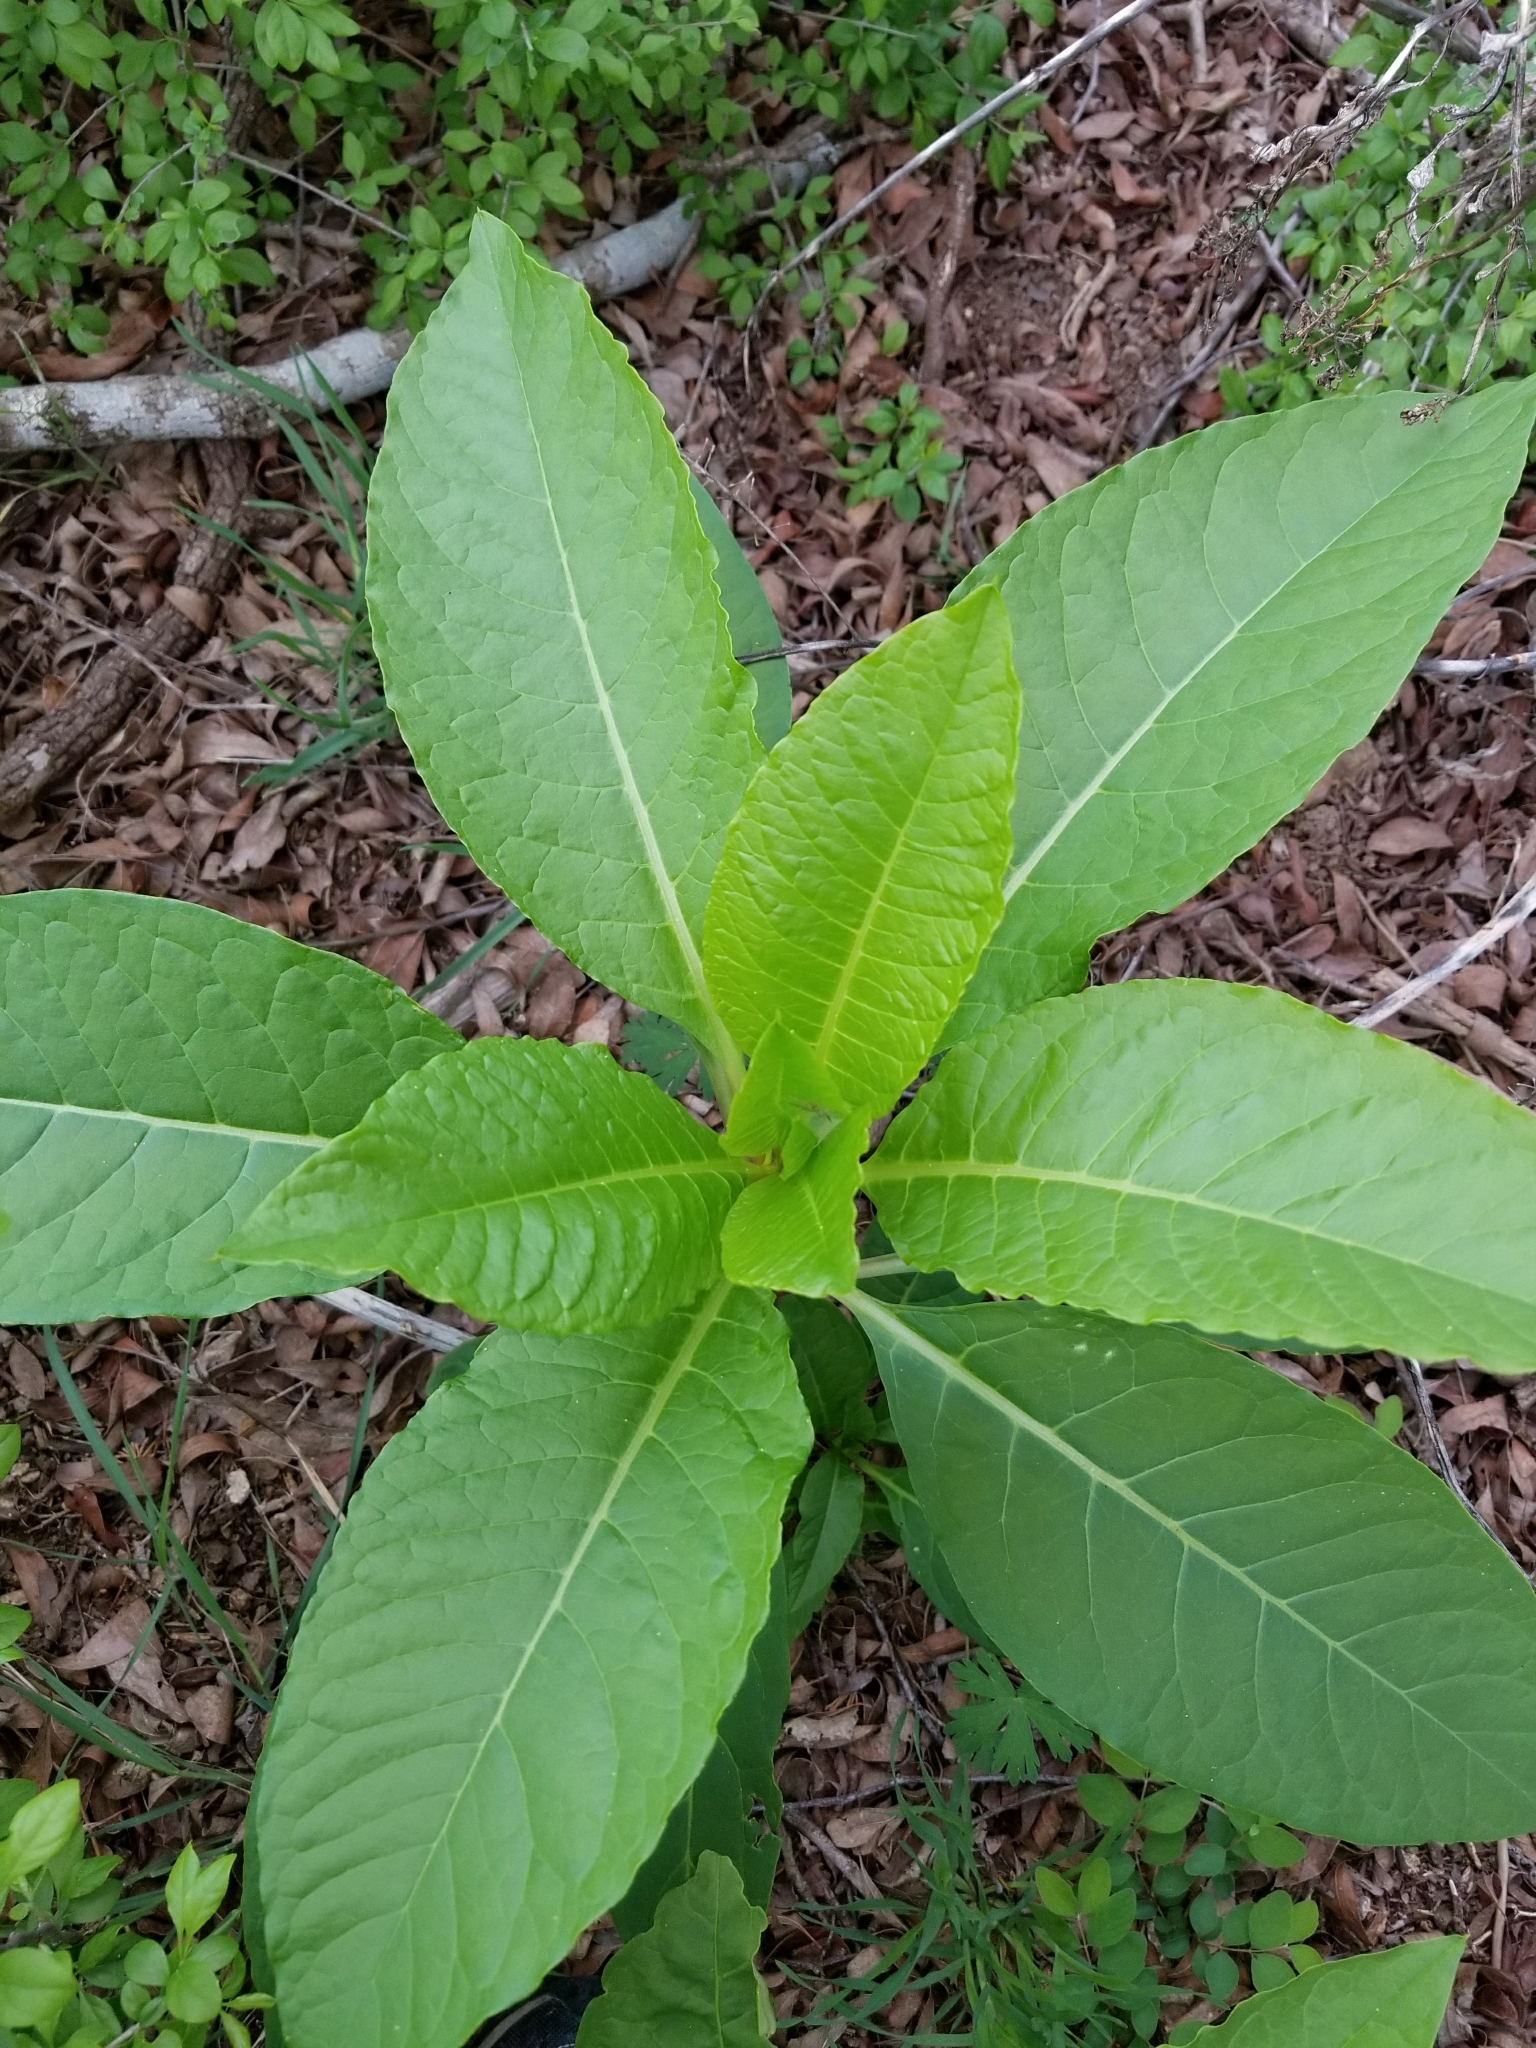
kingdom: Plantae
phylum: Tracheophyta
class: Magnoliopsida
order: Caryophyllales
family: Phytolaccaceae
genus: Phytolacca
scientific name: Phytolacca americana
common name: American pokeweed
